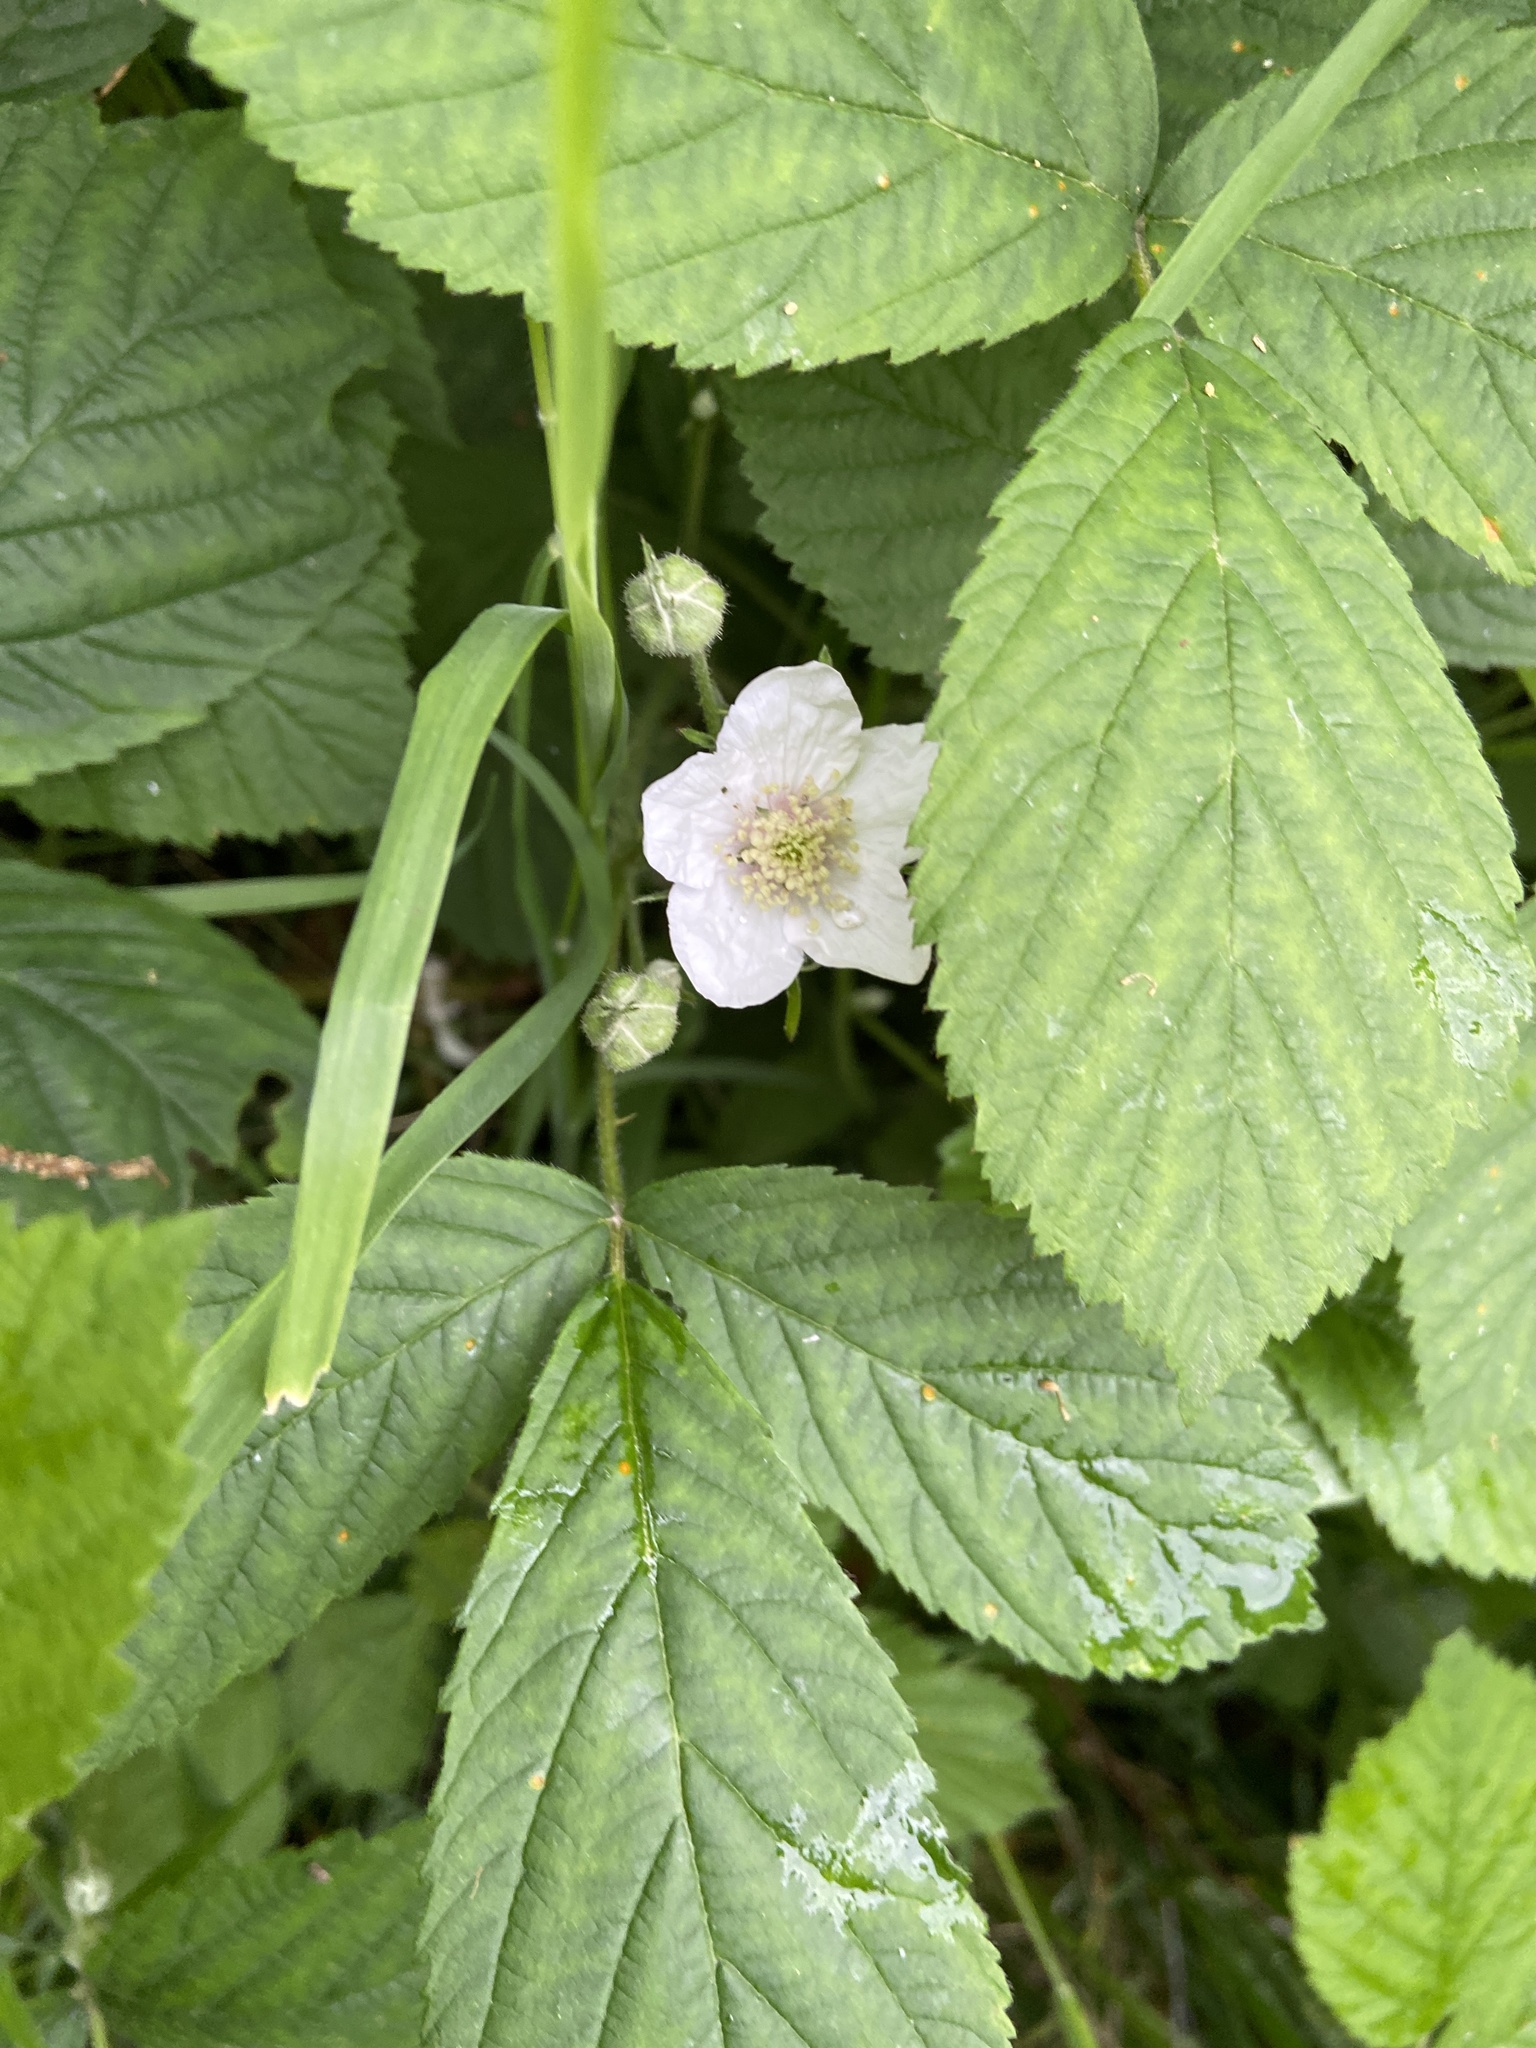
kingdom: Plantae
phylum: Tracheophyta
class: Magnoliopsida
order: Rosales
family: Rosaceae
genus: Rubus
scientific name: Rubus caesius
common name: Dewberry
